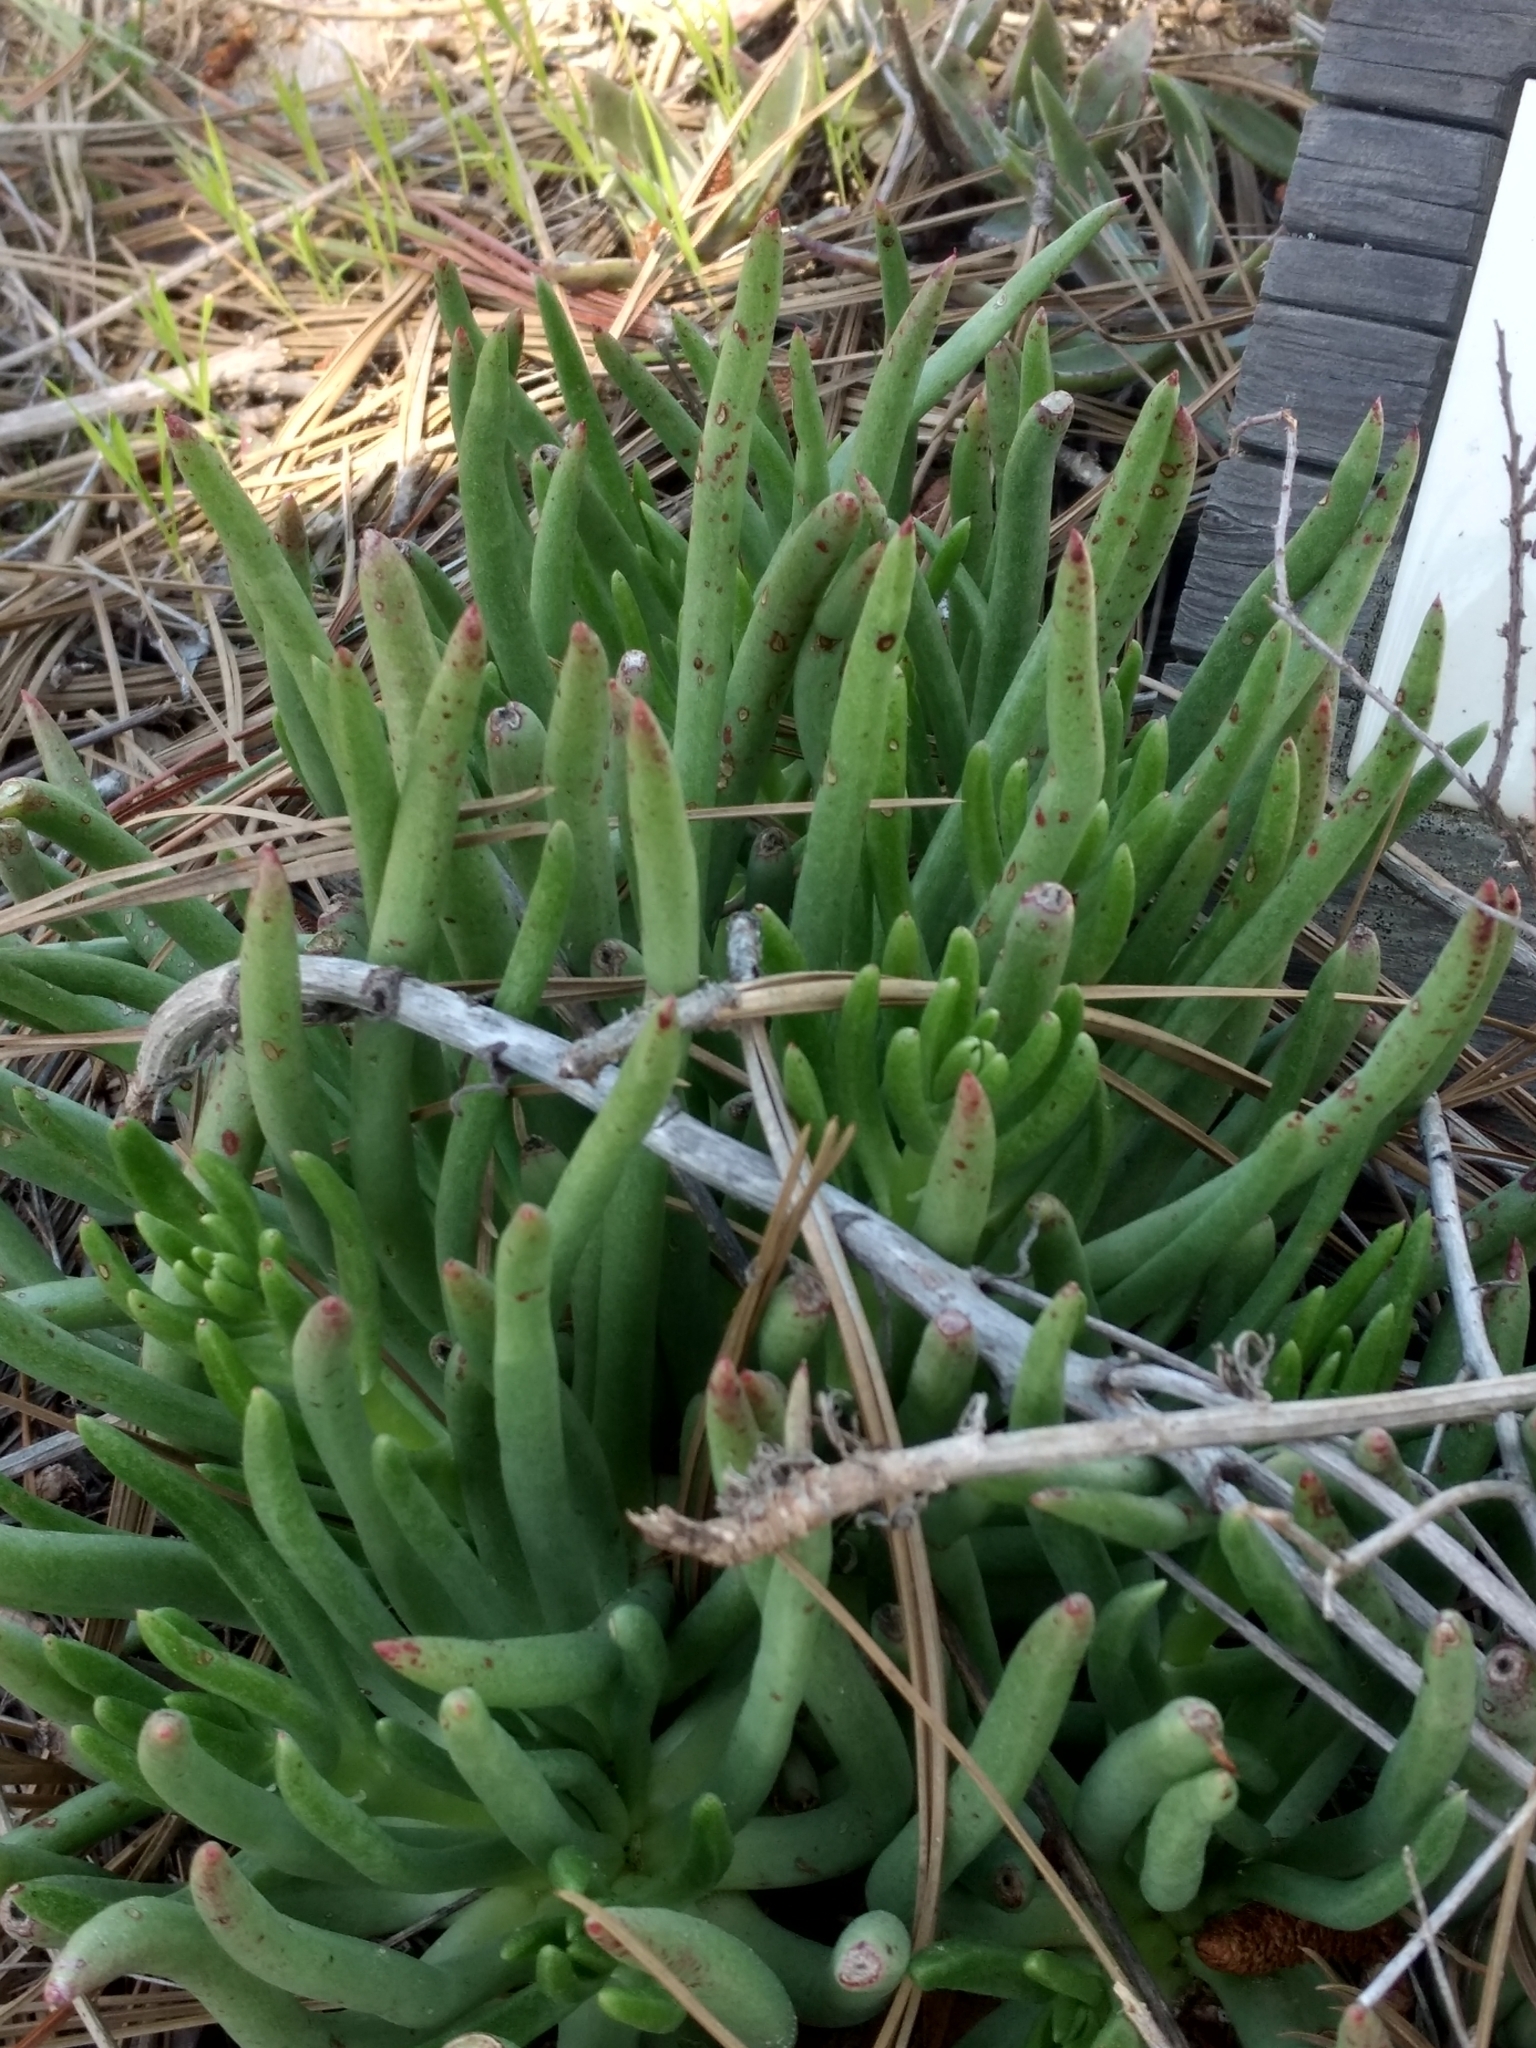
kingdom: Plantae
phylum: Tracheophyta
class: Magnoliopsida
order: Saxifragales
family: Crassulaceae
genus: Dudleya
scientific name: Dudleya edulis
